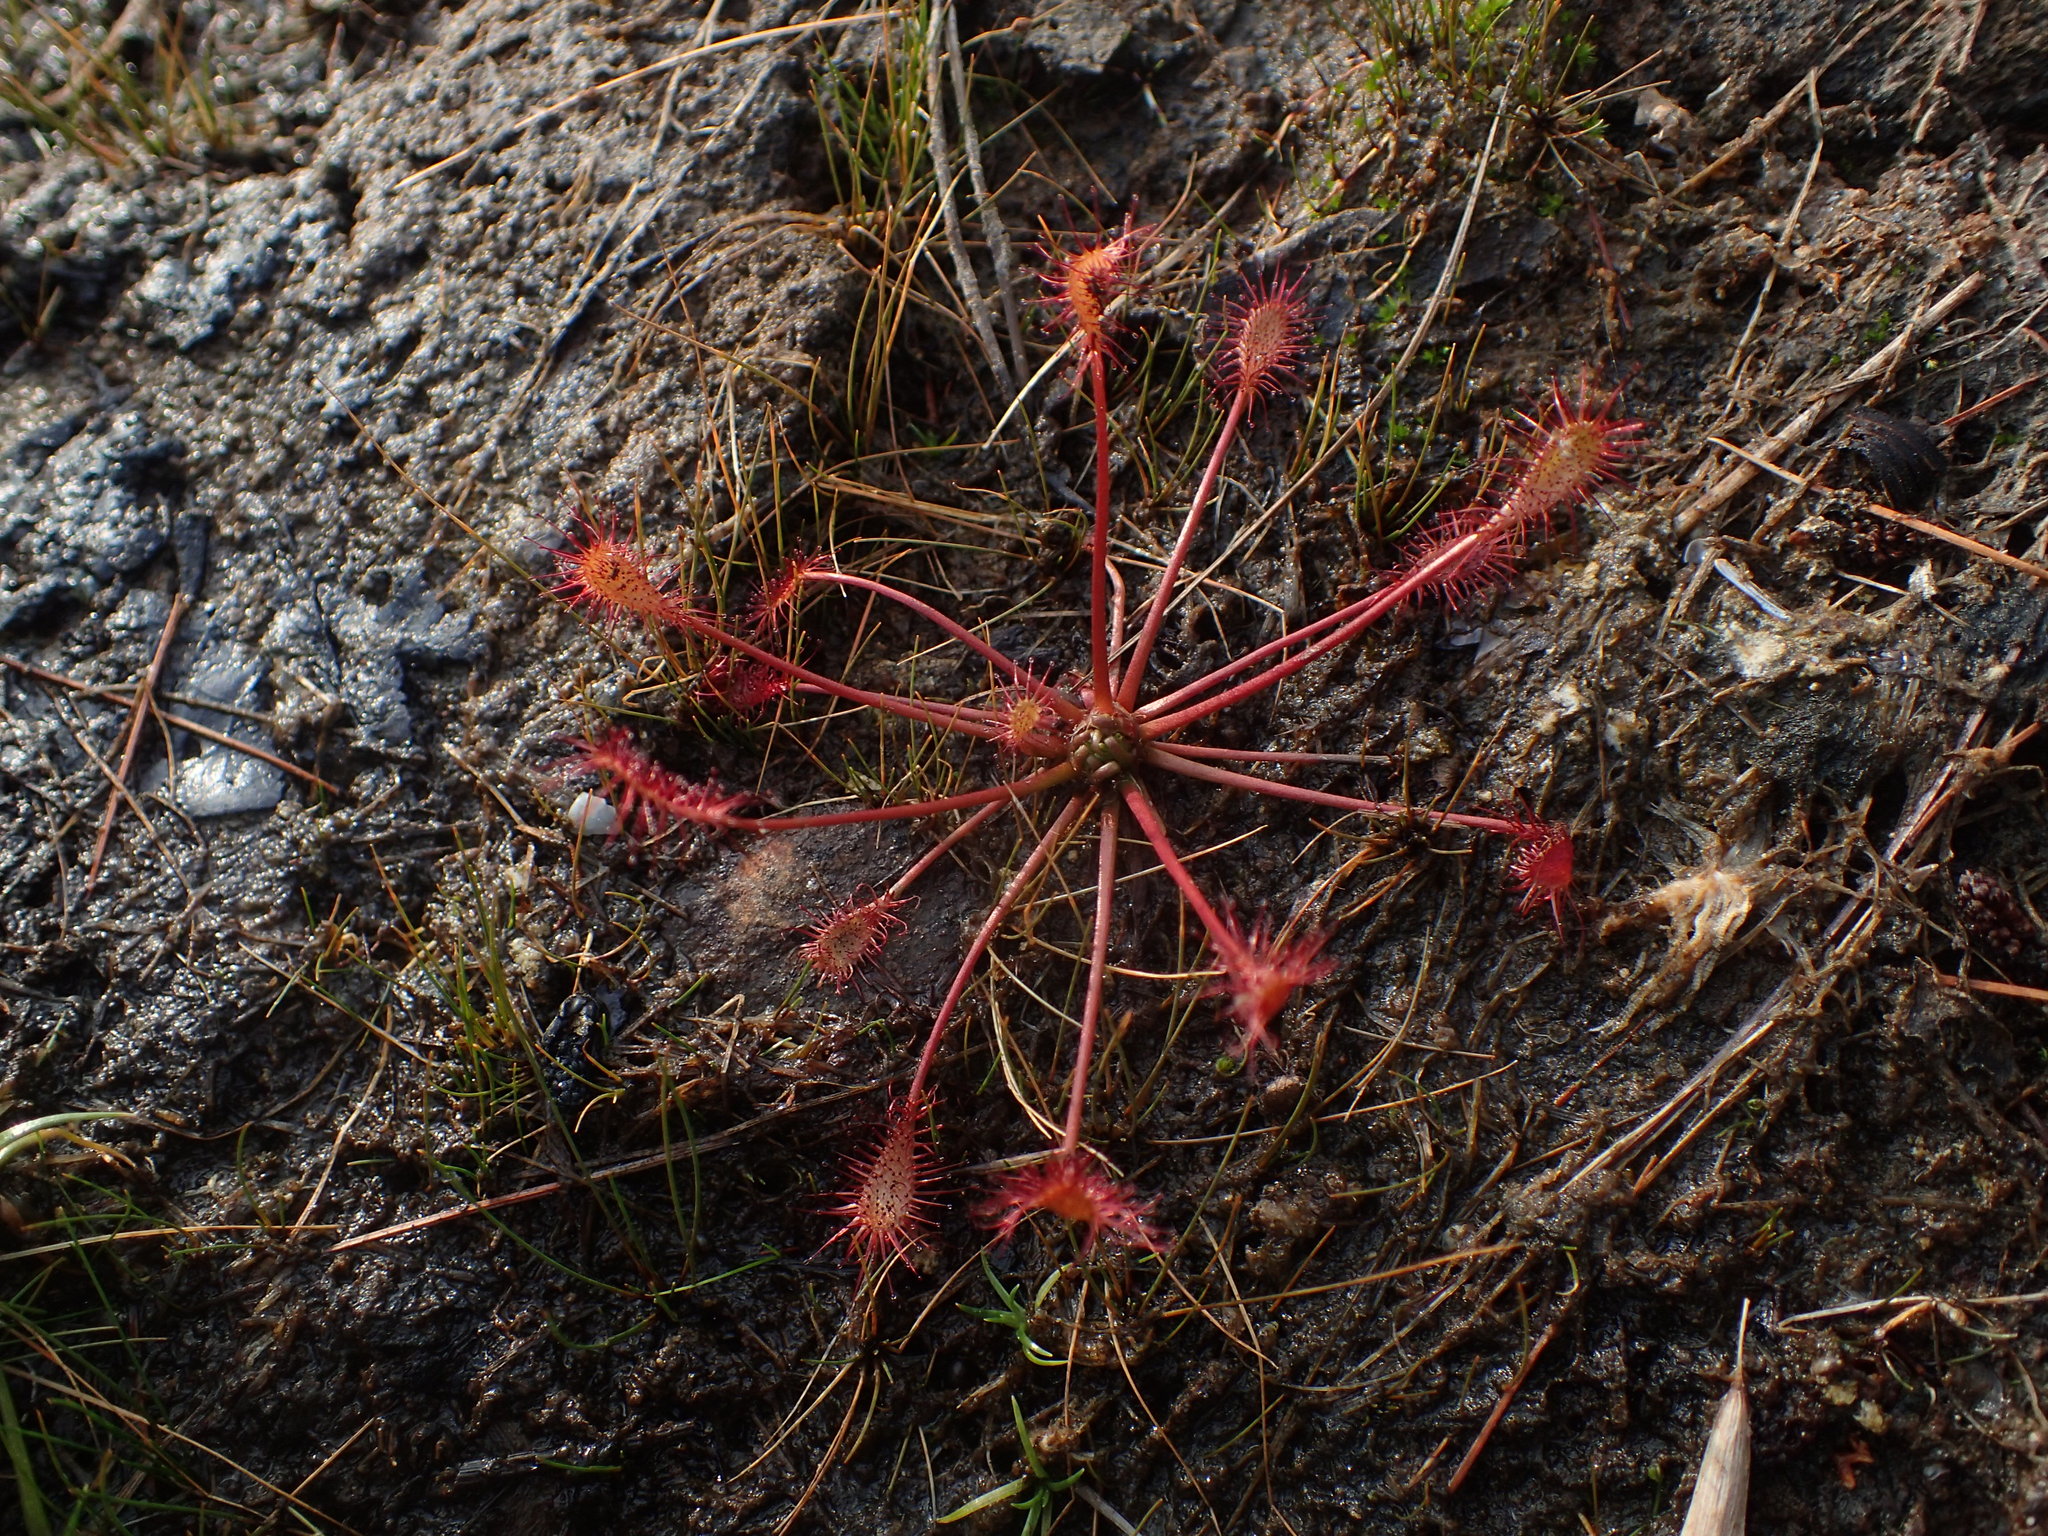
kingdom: Plantae
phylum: Tracheophyta
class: Magnoliopsida
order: Caryophyllales
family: Droseraceae
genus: Drosera
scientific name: Drosera intermedia
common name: Oblong-leaved sundew
